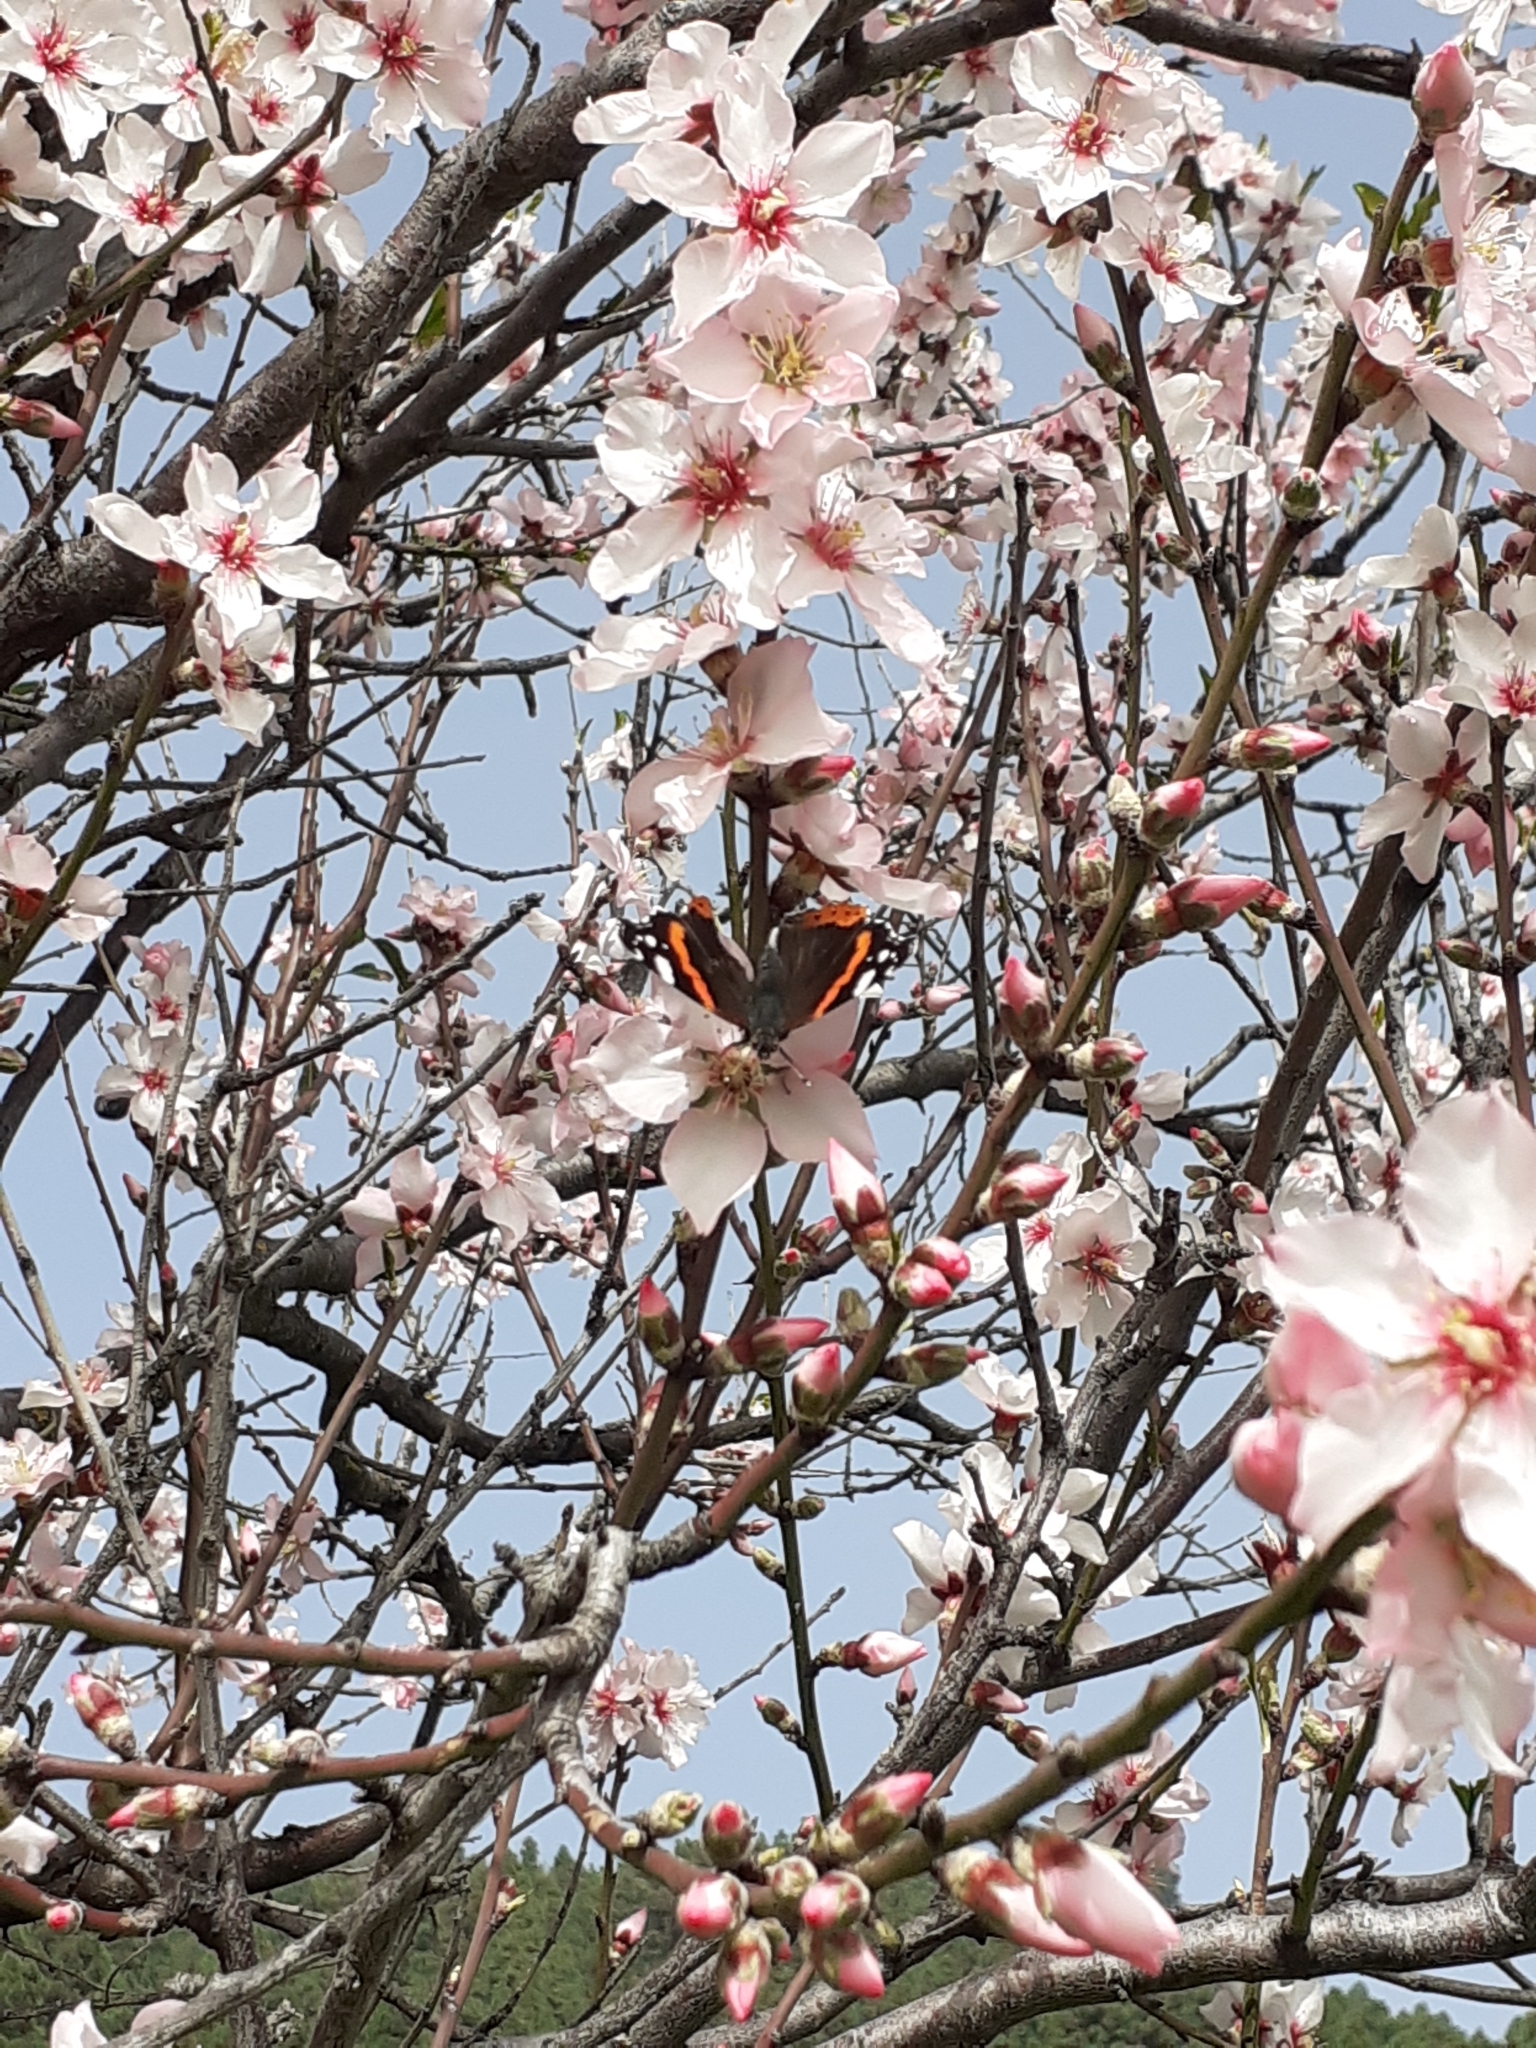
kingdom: Animalia
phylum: Arthropoda
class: Insecta
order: Lepidoptera
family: Nymphalidae
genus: Vanessa
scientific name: Vanessa atalanta
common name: Red admiral
